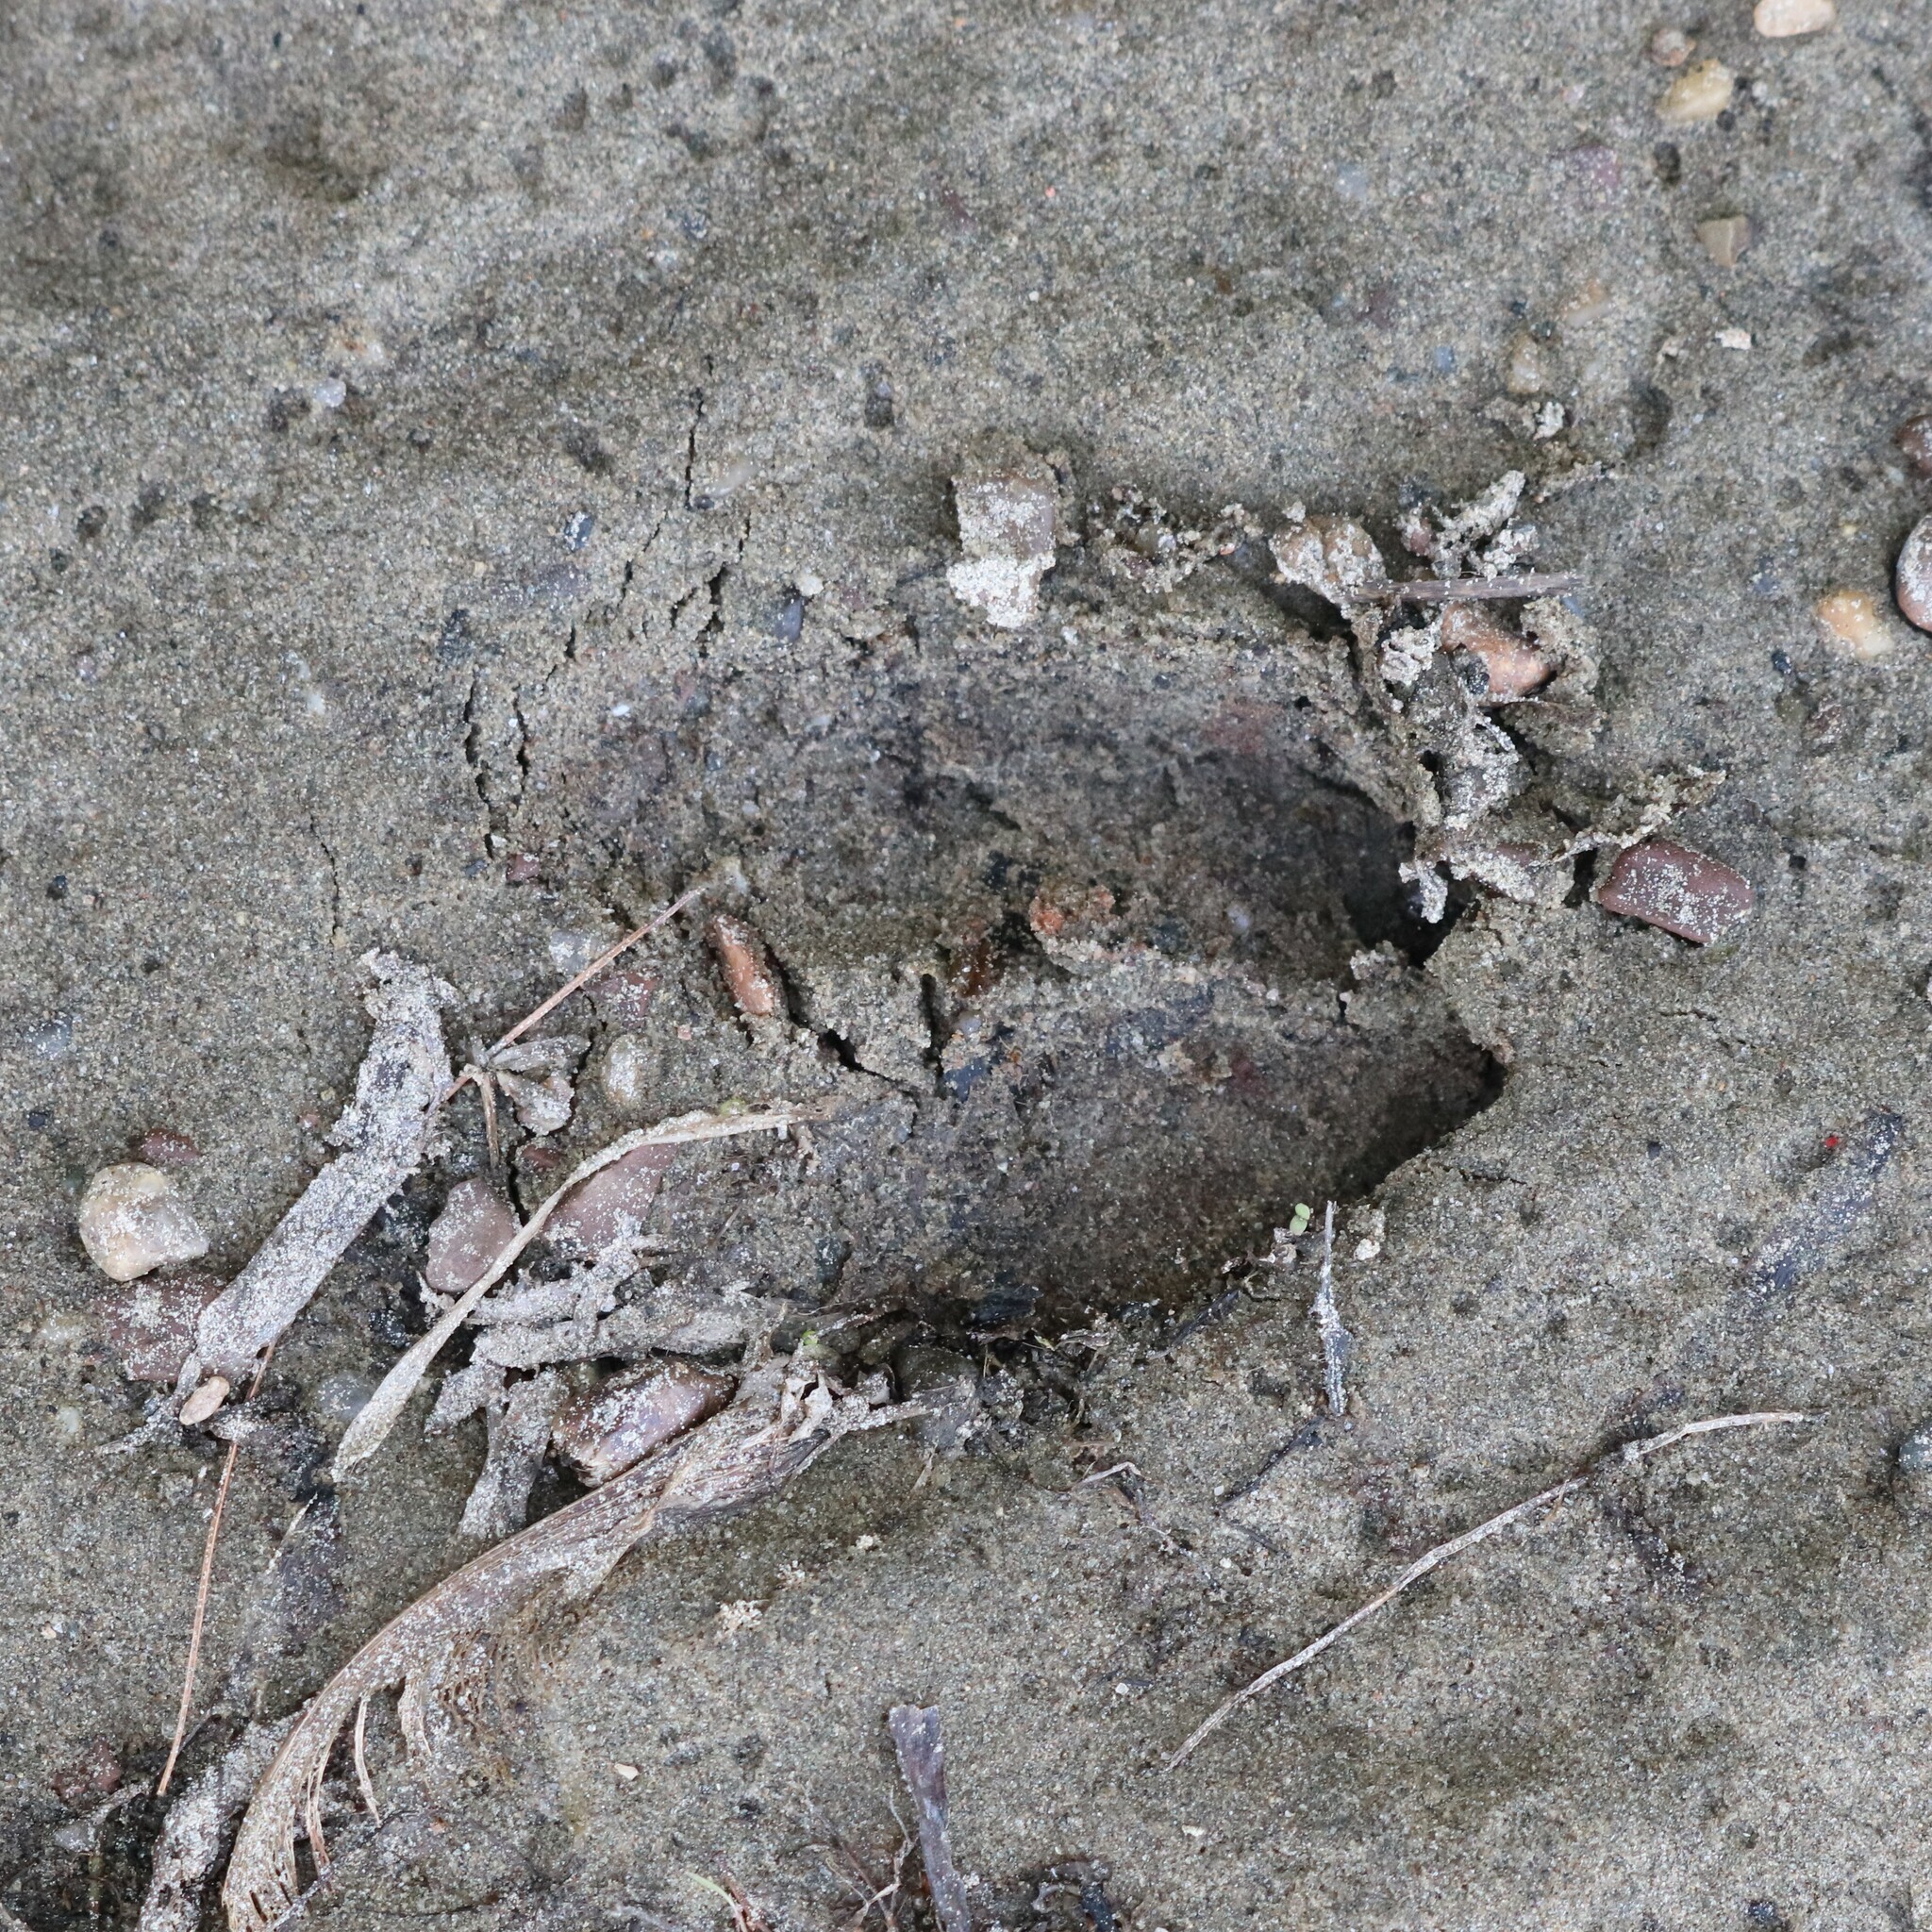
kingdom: Animalia
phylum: Chordata
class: Mammalia
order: Artiodactyla
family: Cervidae
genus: Odocoileus
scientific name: Odocoileus virginianus
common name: White-tailed deer
